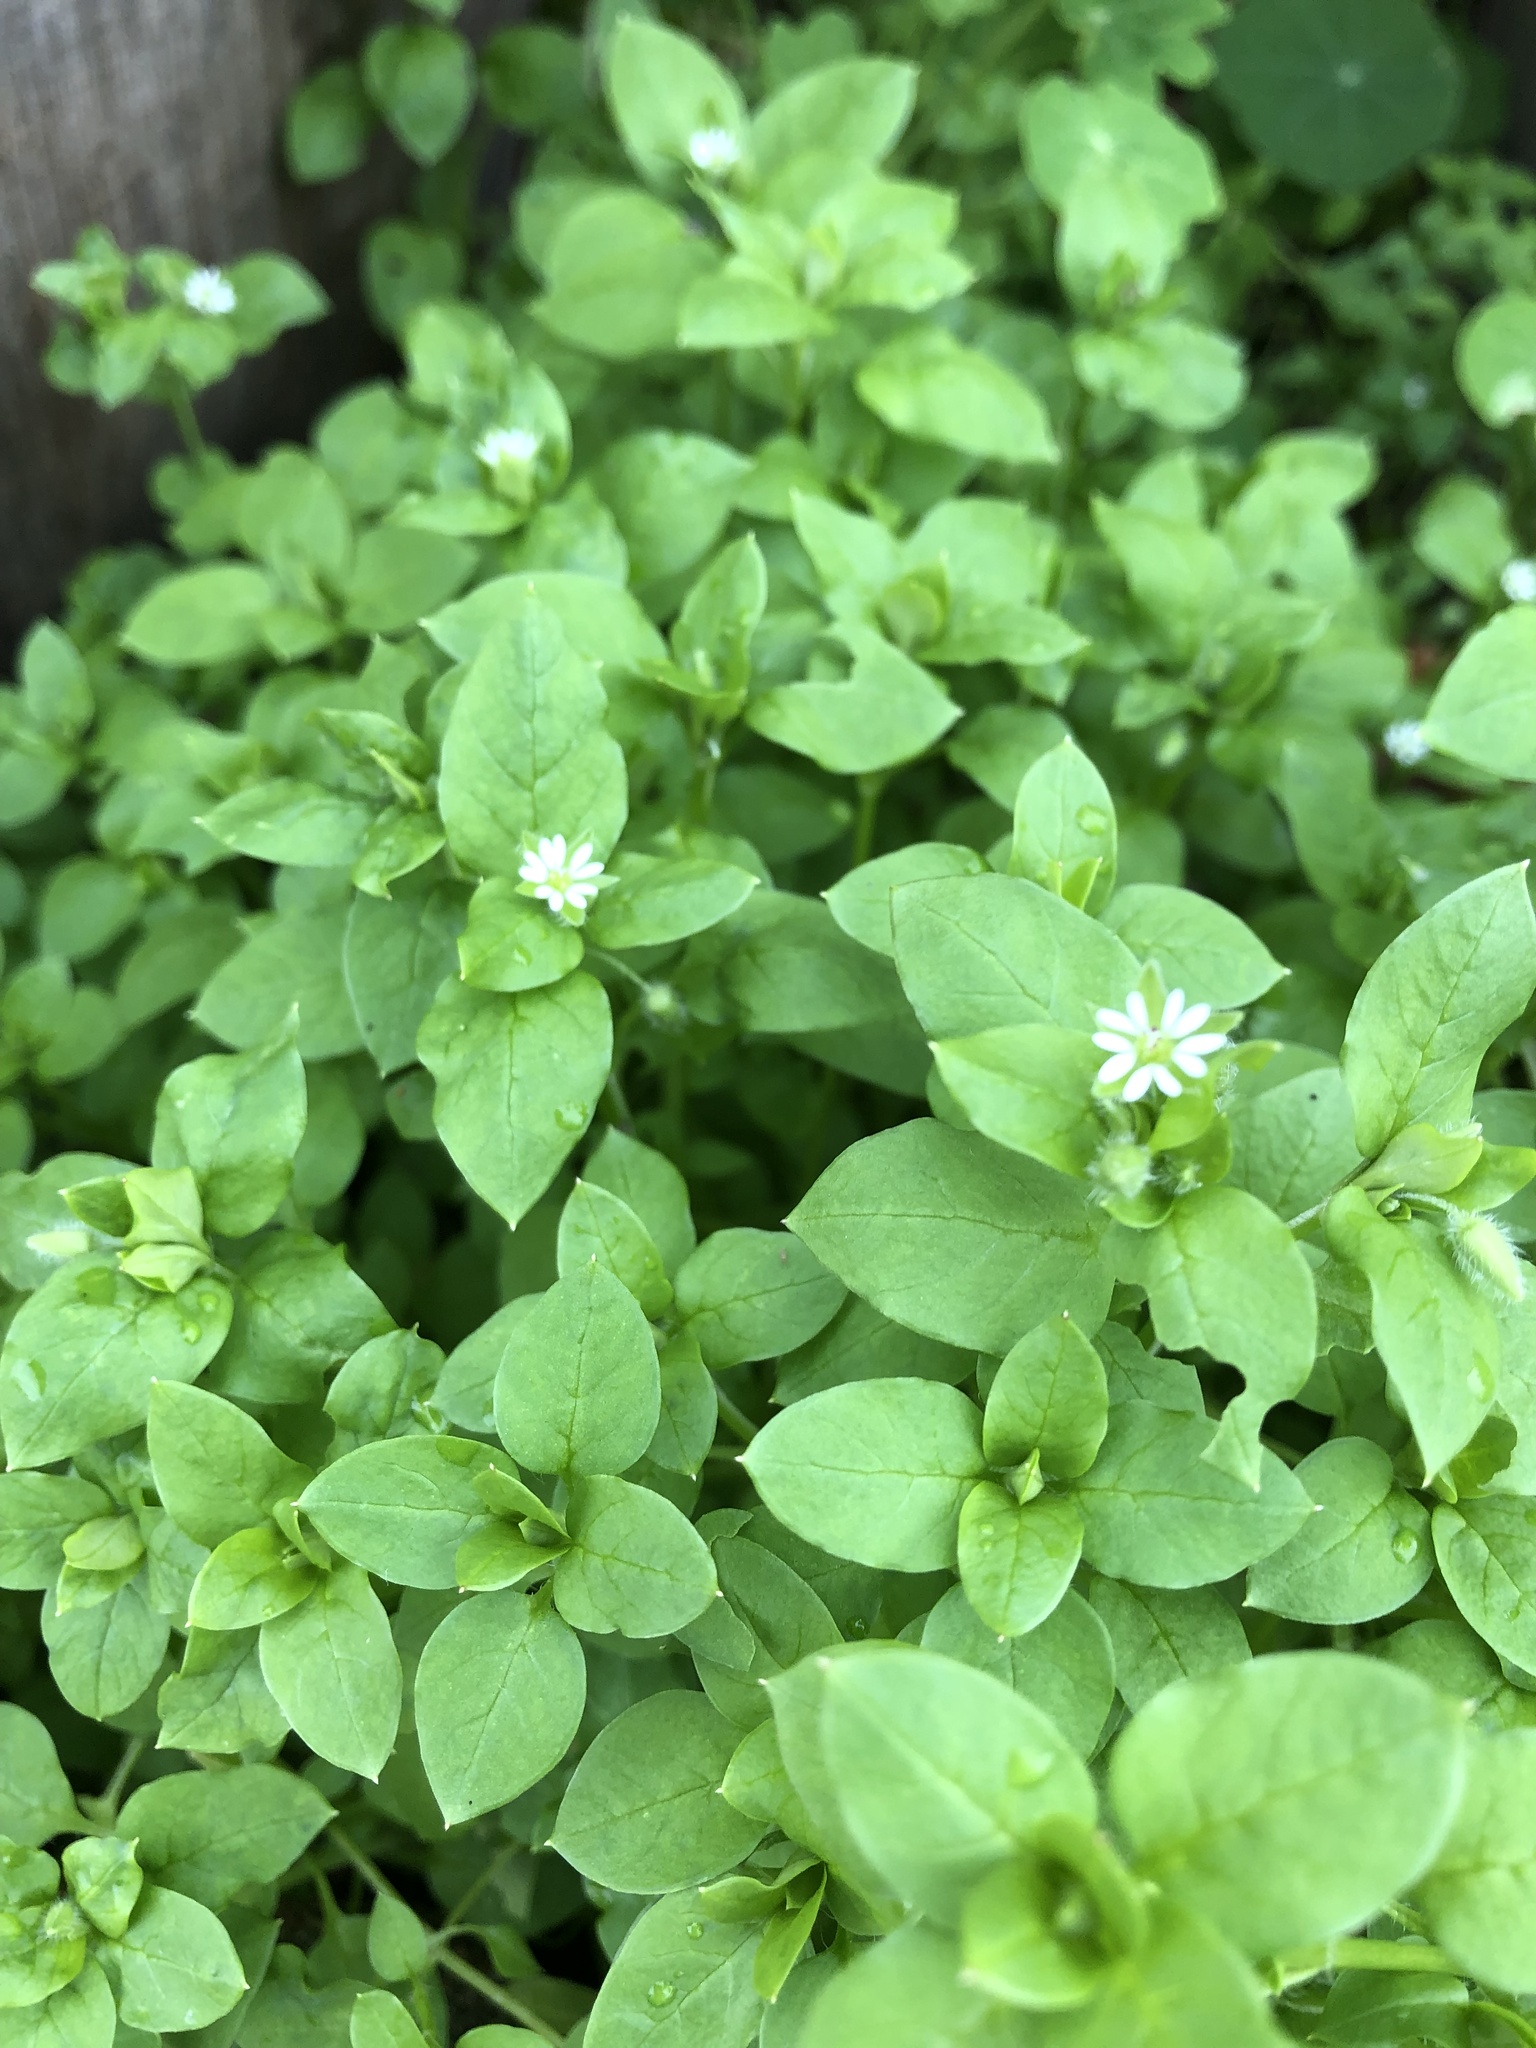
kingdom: Plantae
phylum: Tracheophyta
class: Magnoliopsida
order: Caryophyllales
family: Caryophyllaceae
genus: Stellaria
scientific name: Stellaria media
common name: Common chickweed
